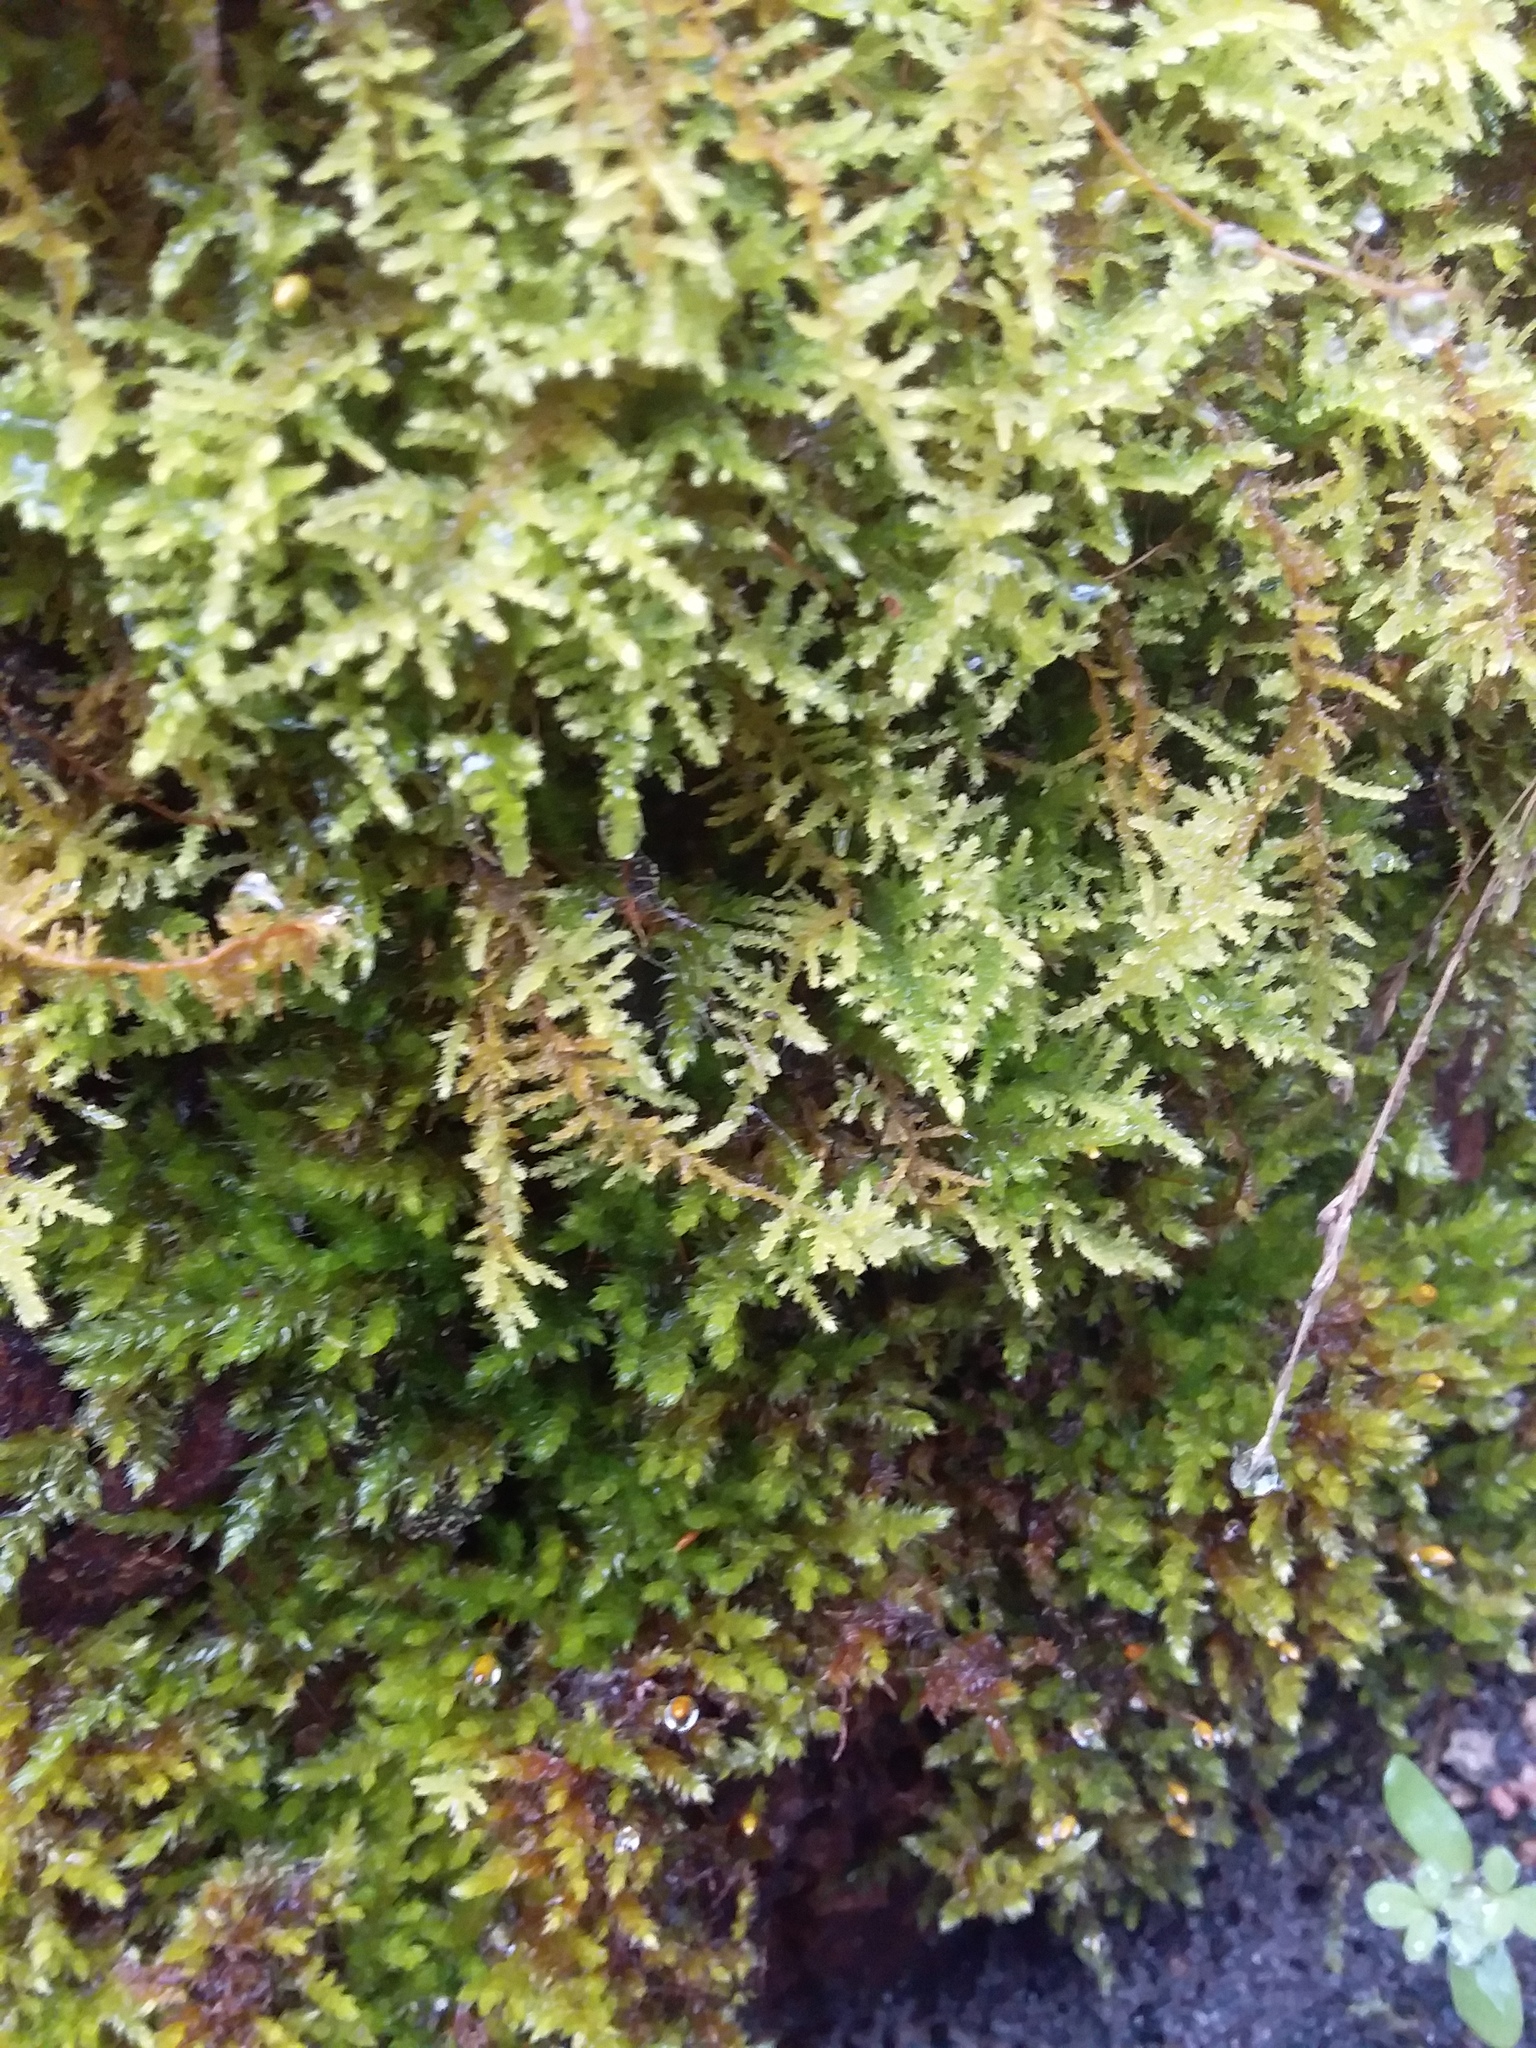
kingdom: Plantae
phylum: Bryophyta
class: Bryopsida
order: Hypnales
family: Thuidiaceae
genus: Thuidiopsis
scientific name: Thuidiopsis sparsa
